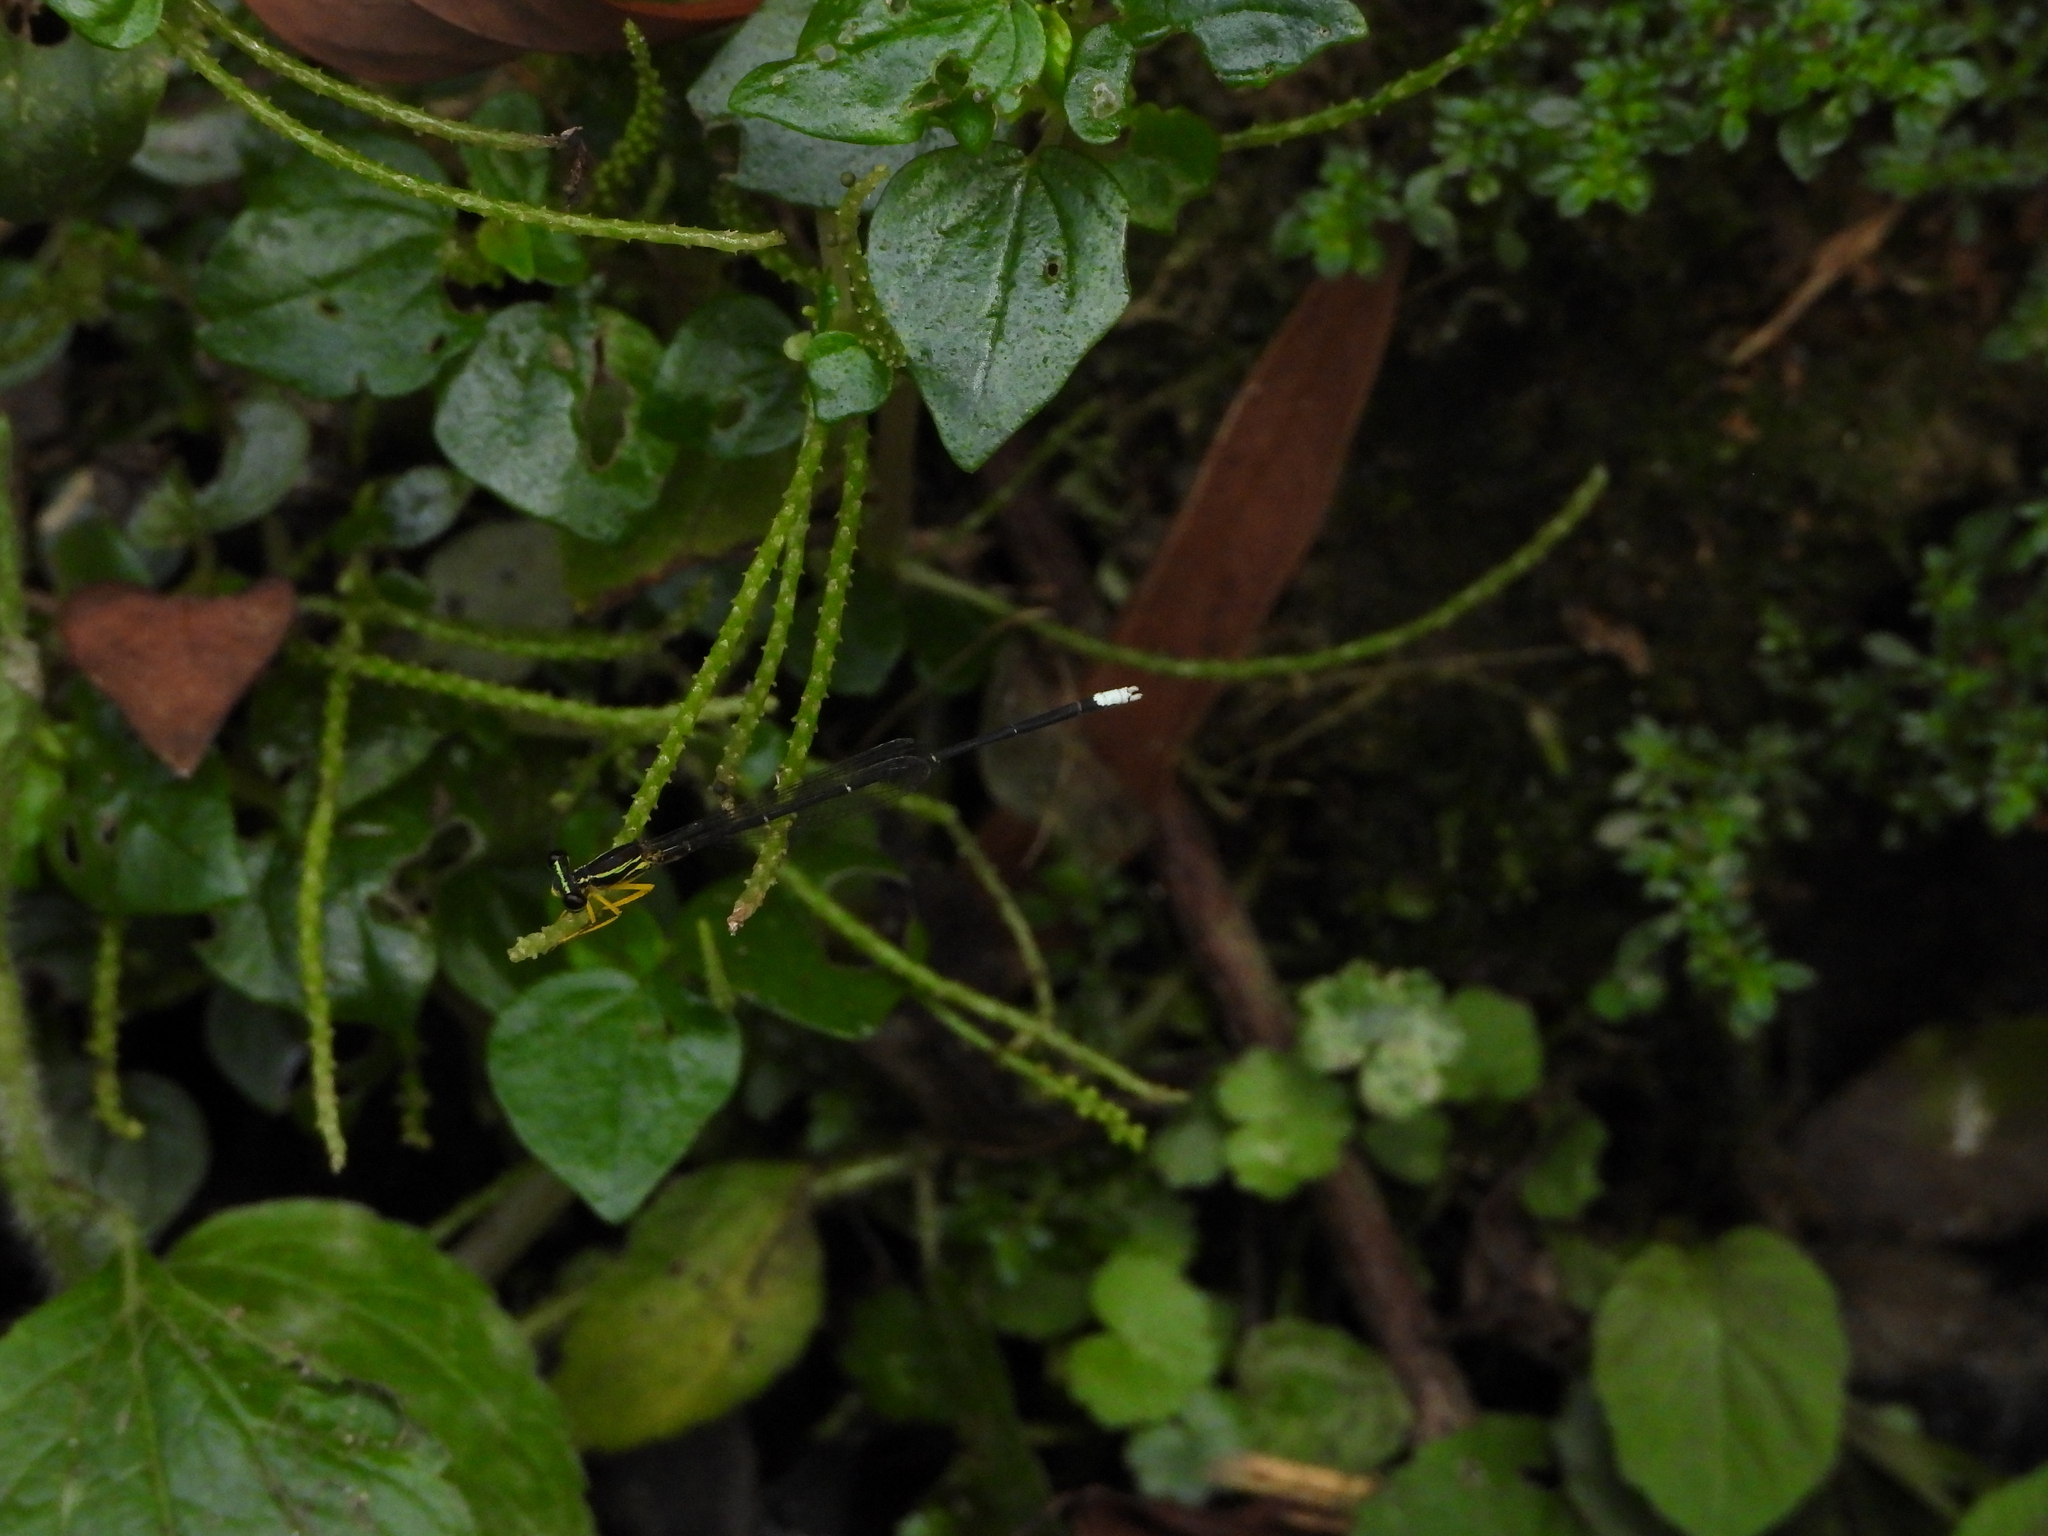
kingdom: Animalia
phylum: Arthropoda
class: Insecta
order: Odonata
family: Platycnemididae
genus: Copera
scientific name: Copera marginipes
